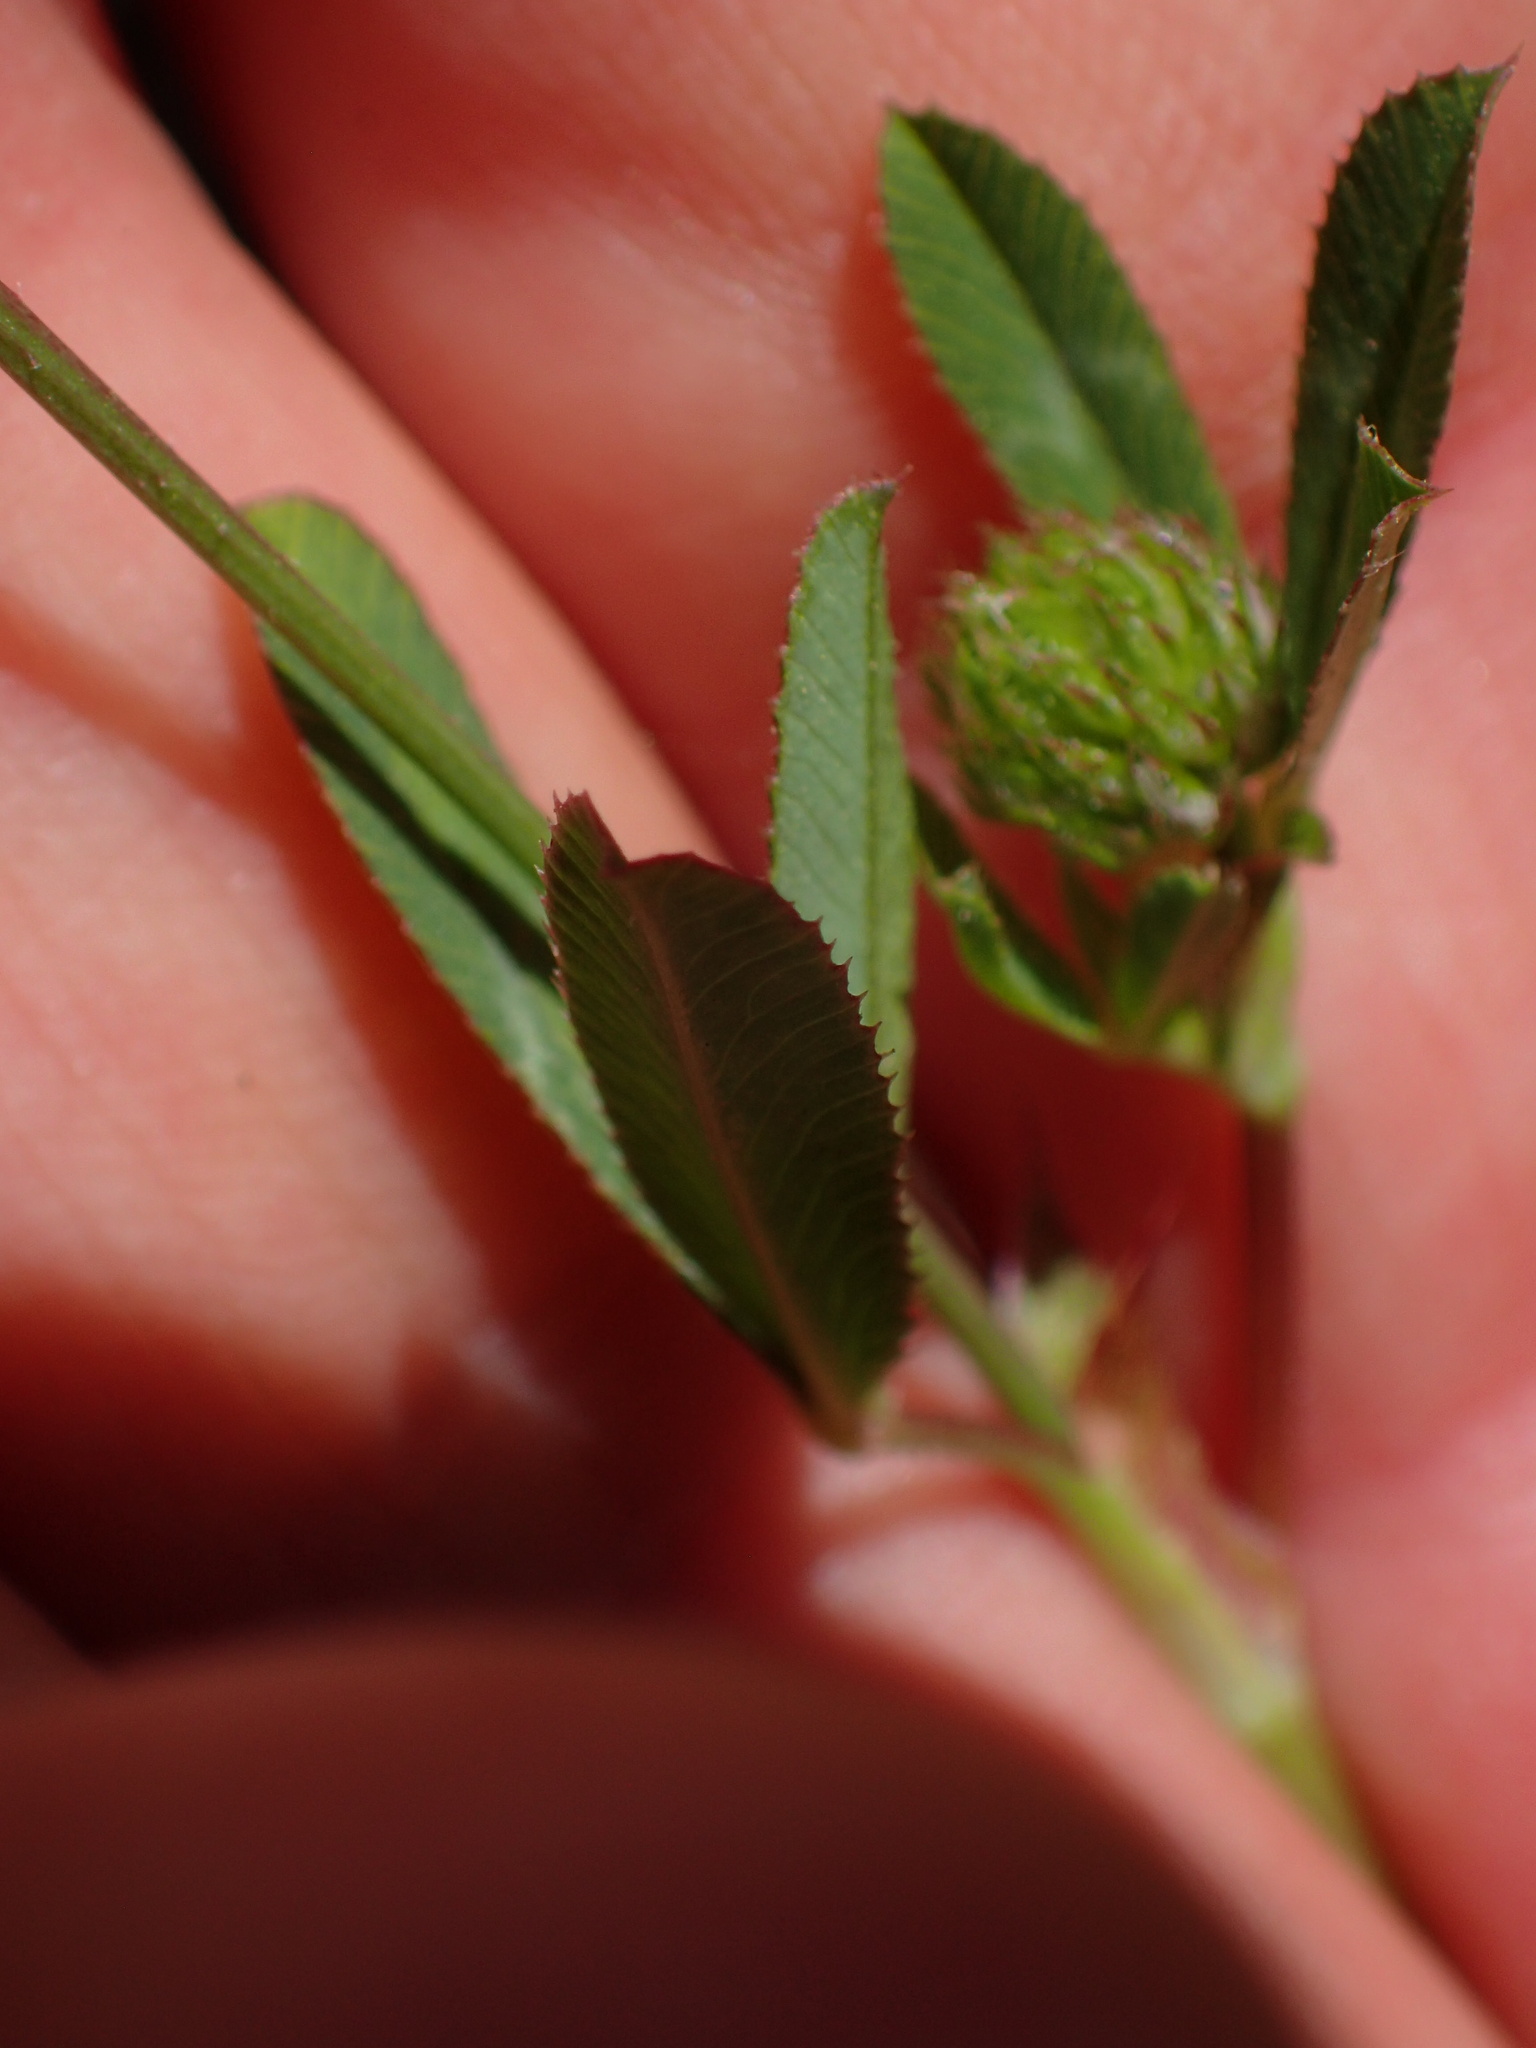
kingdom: Plantae
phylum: Tracheophyta
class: Magnoliopsida
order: Fabales
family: Fabaceae
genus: Trifolium
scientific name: Trifolium ciliolatum
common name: Foothill clover
